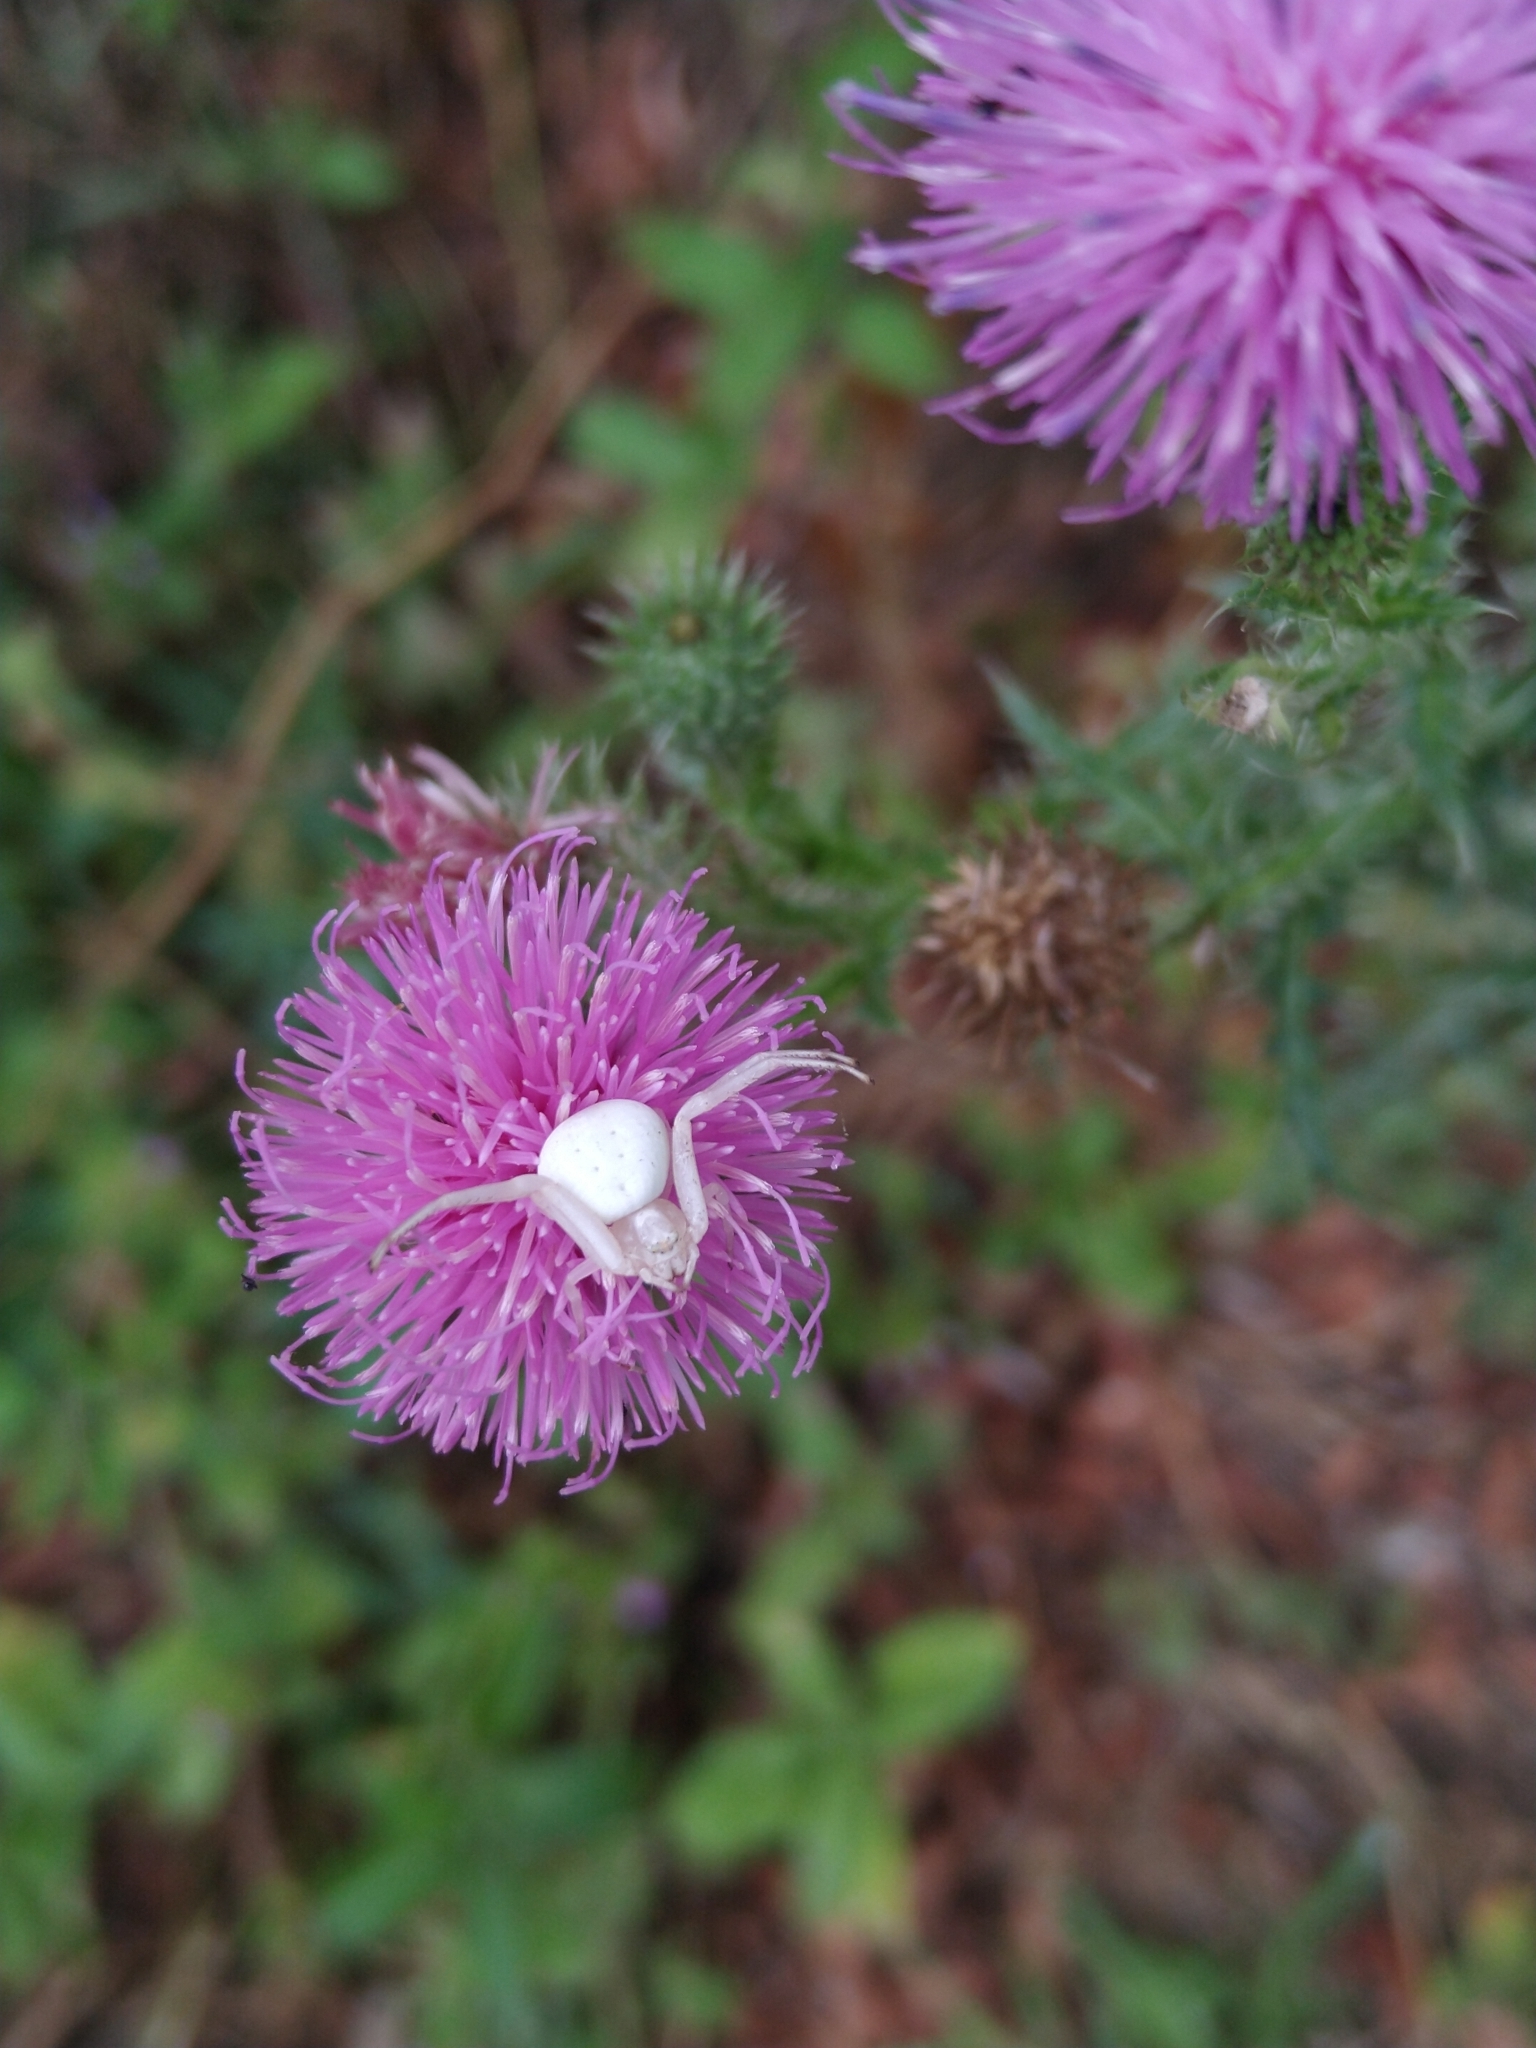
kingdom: Animalia
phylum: Arthropoda
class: Arachnida
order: Araneae
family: Thomisidae
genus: Misumena
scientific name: Misumena vatia
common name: Goldenrod crab spider
